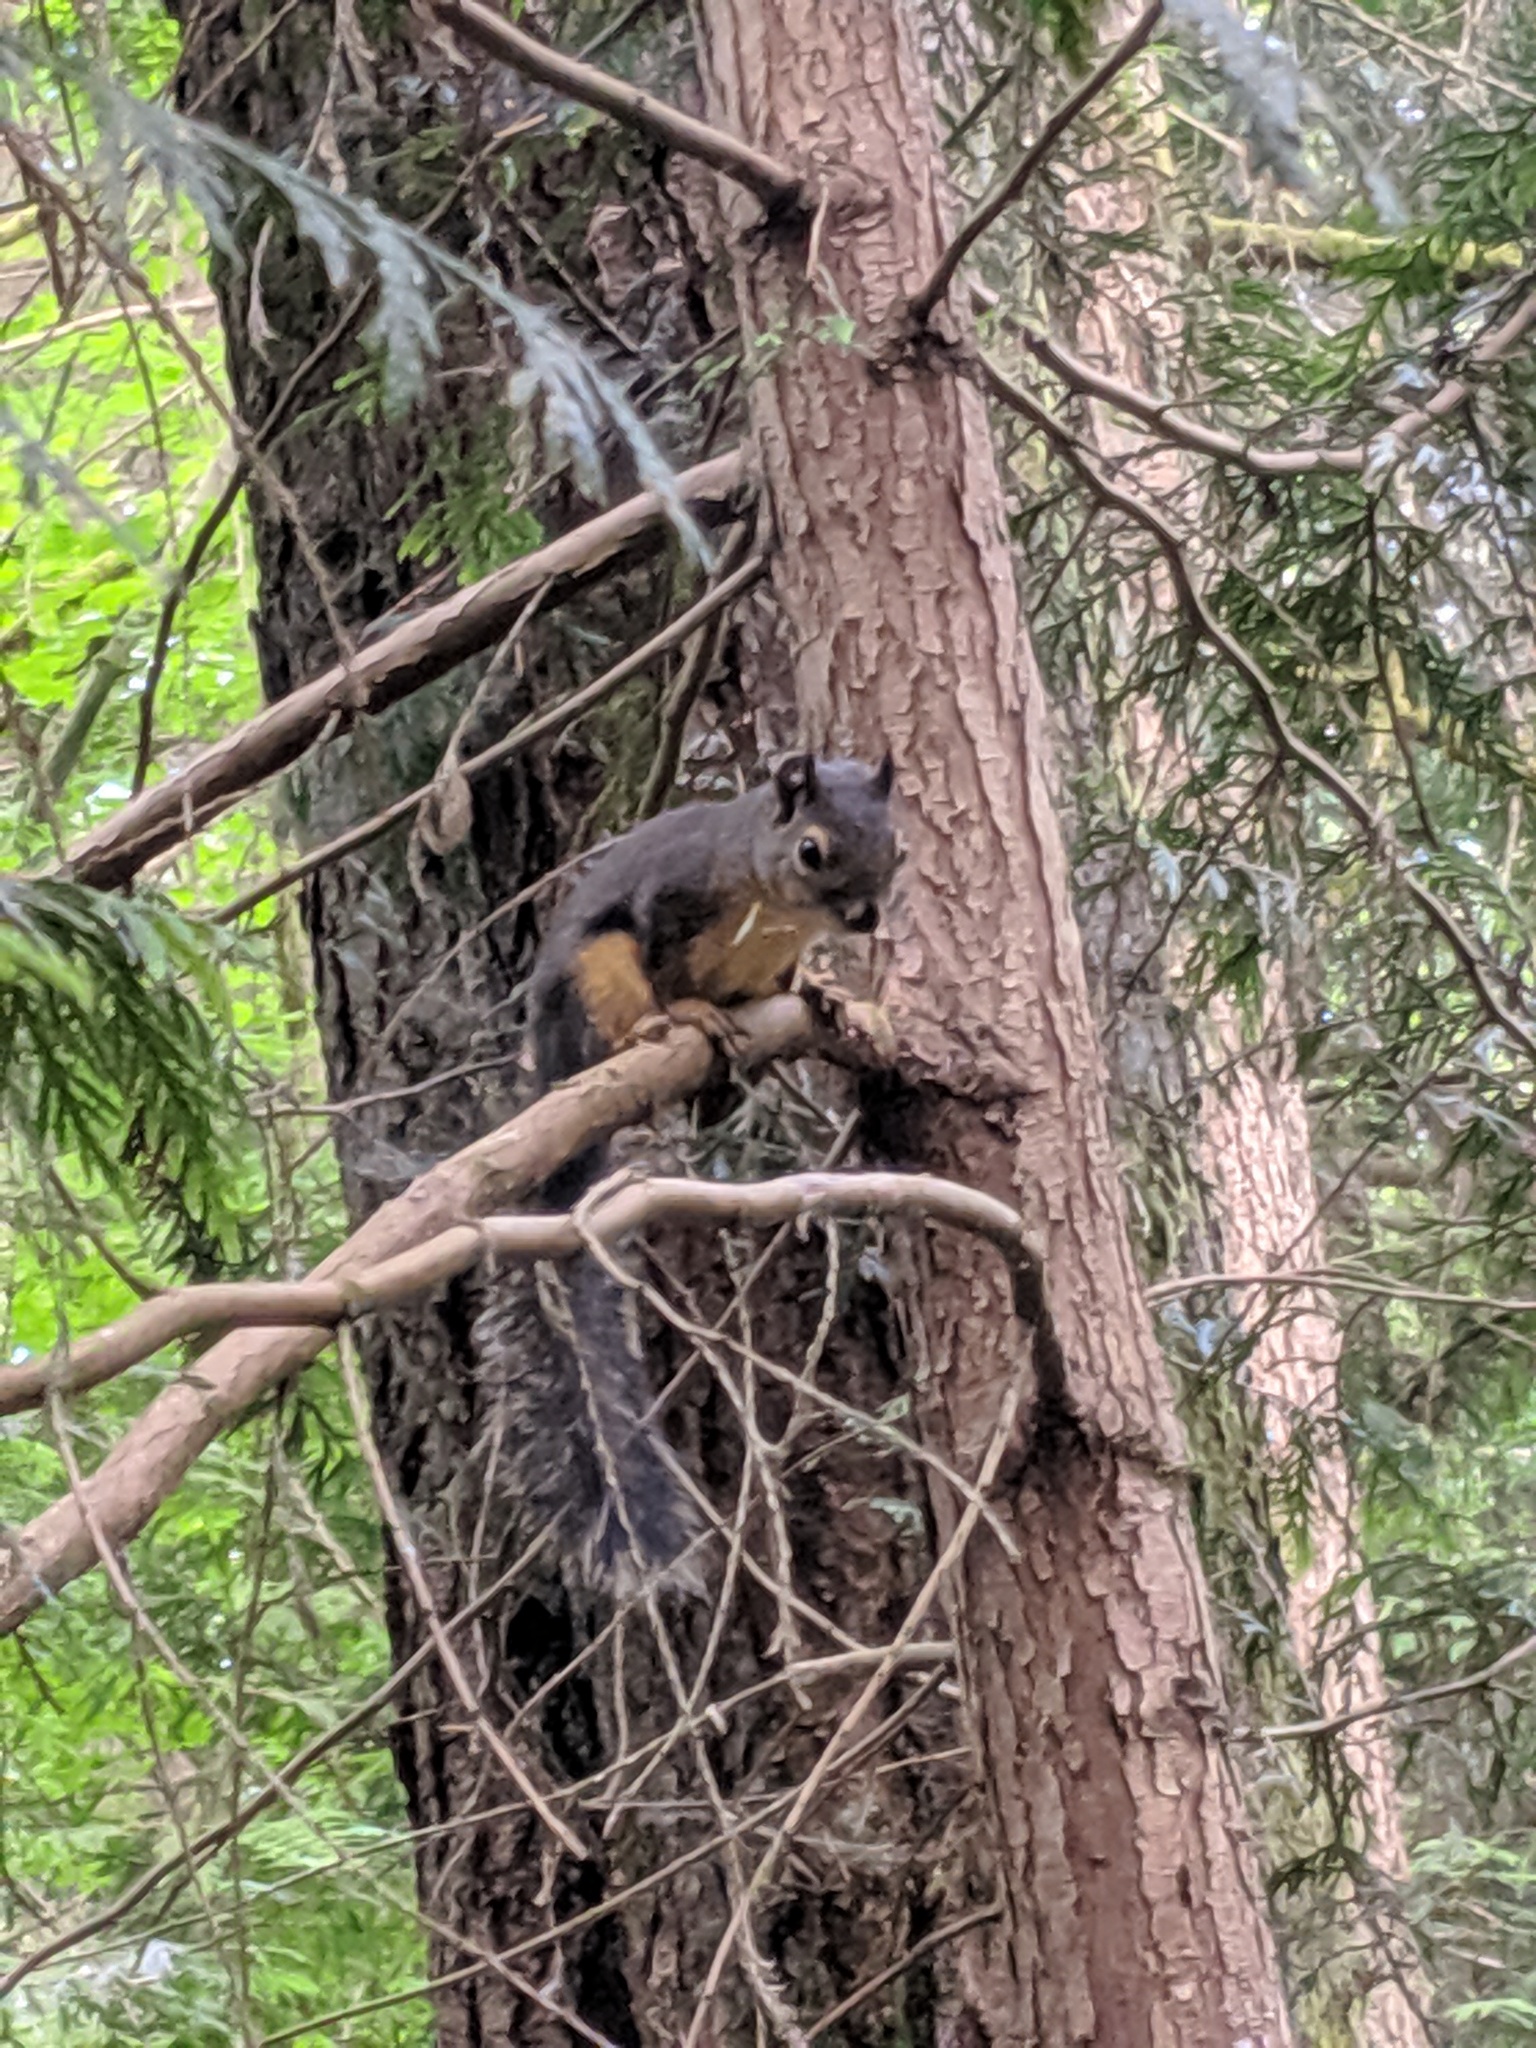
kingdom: Animalia
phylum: Chordata
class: Mammalia
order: Rodentia
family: Sciuridae
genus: Tamiasciurus
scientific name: Tamiasciurus douglasii
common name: Douglas's squirrel
